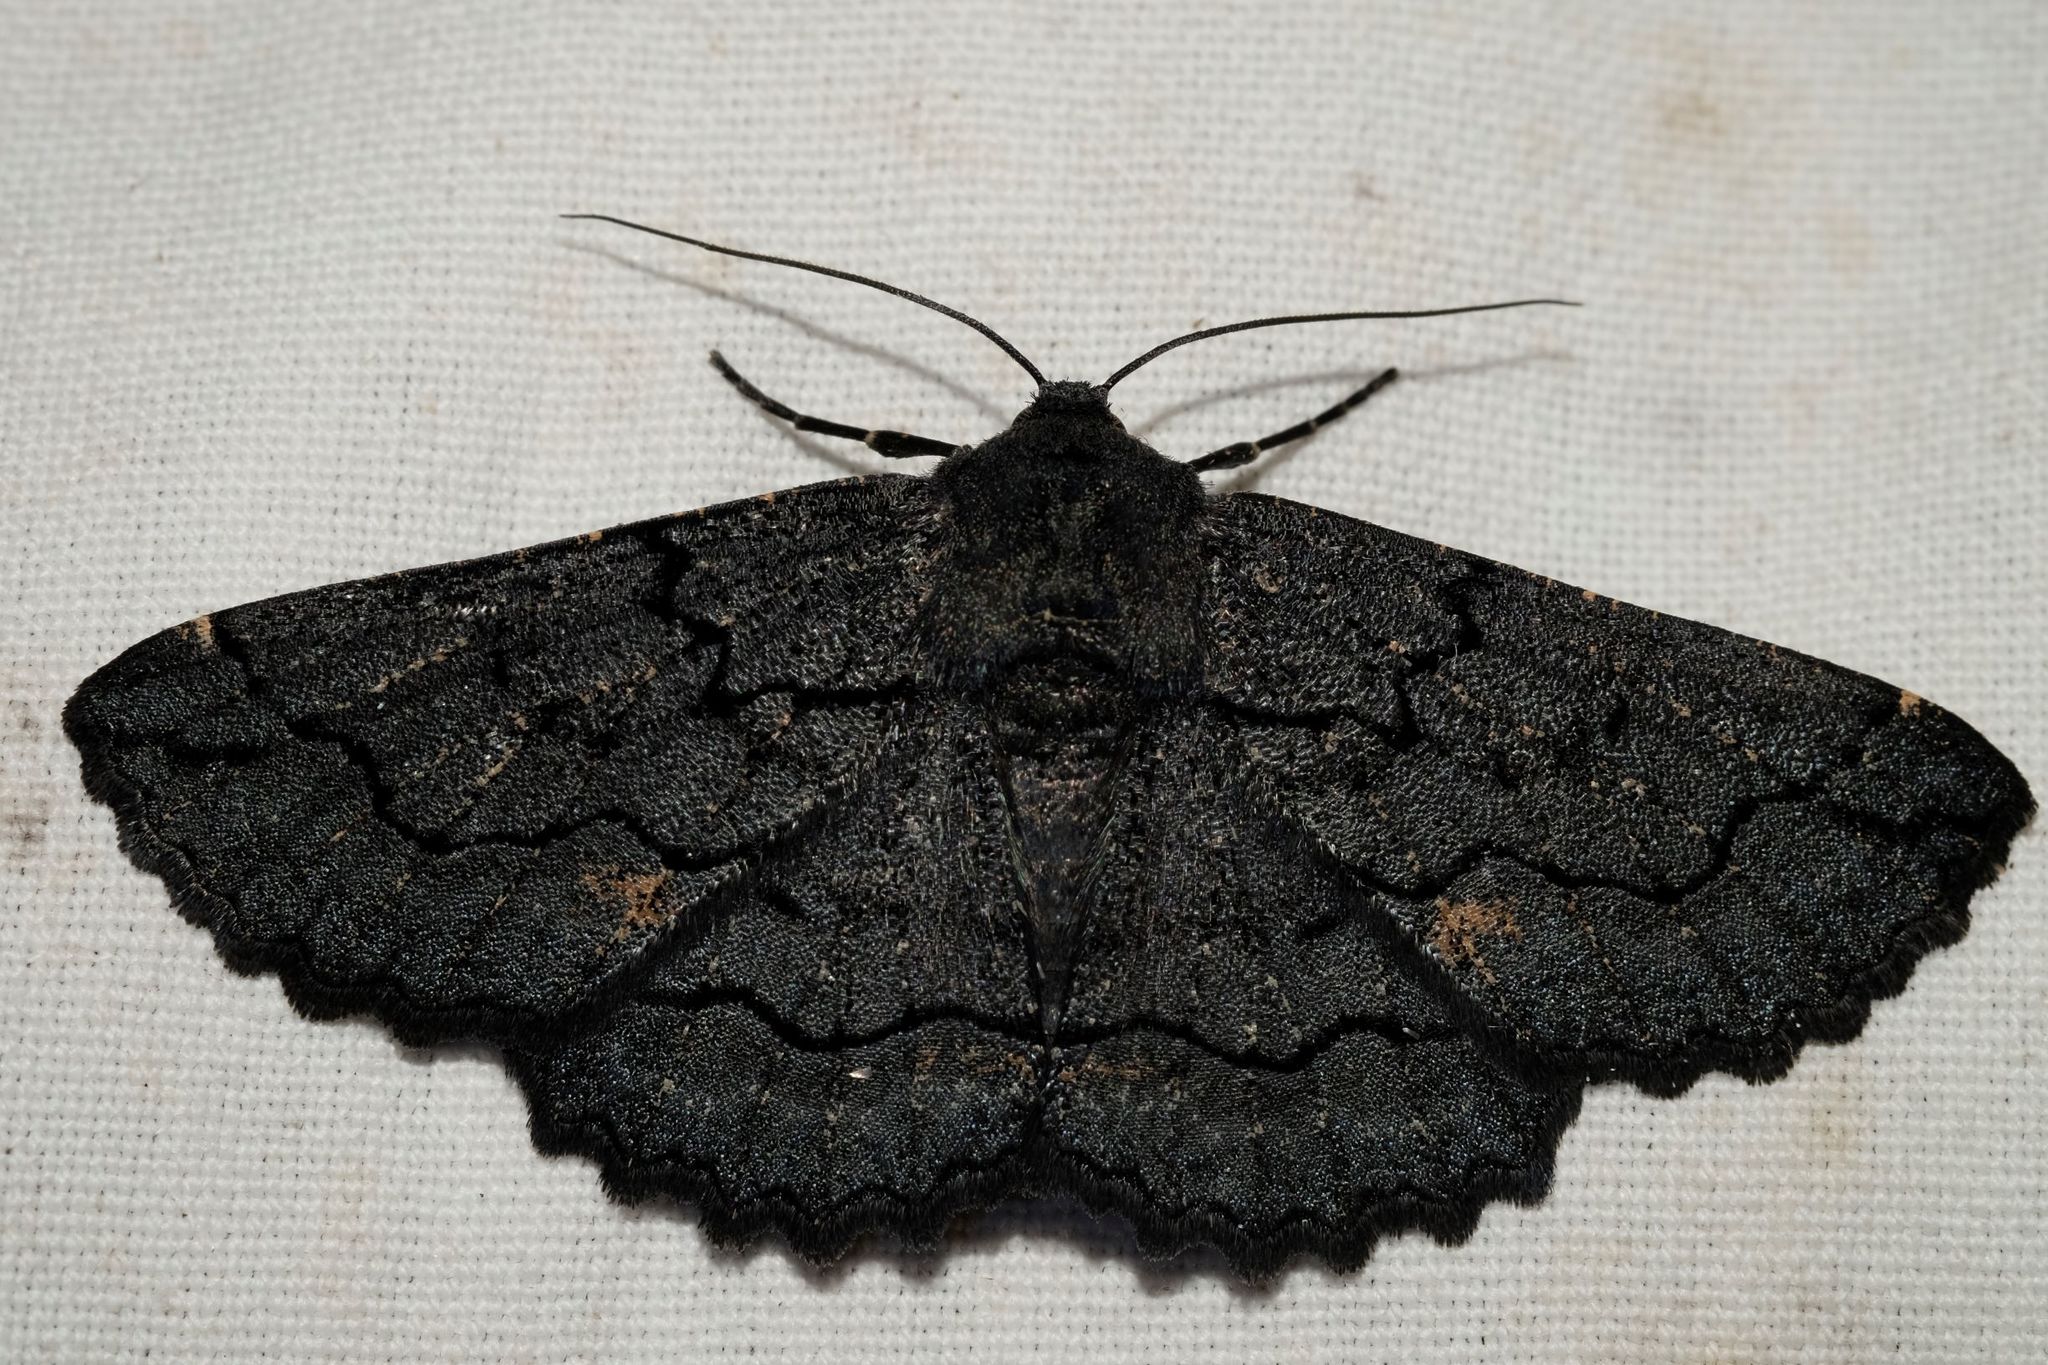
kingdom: Animalia
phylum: Arthropoda
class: Insecta
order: Lepidoptera
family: Geometridae
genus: Melanodes
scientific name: Melanodes anthracitaria
